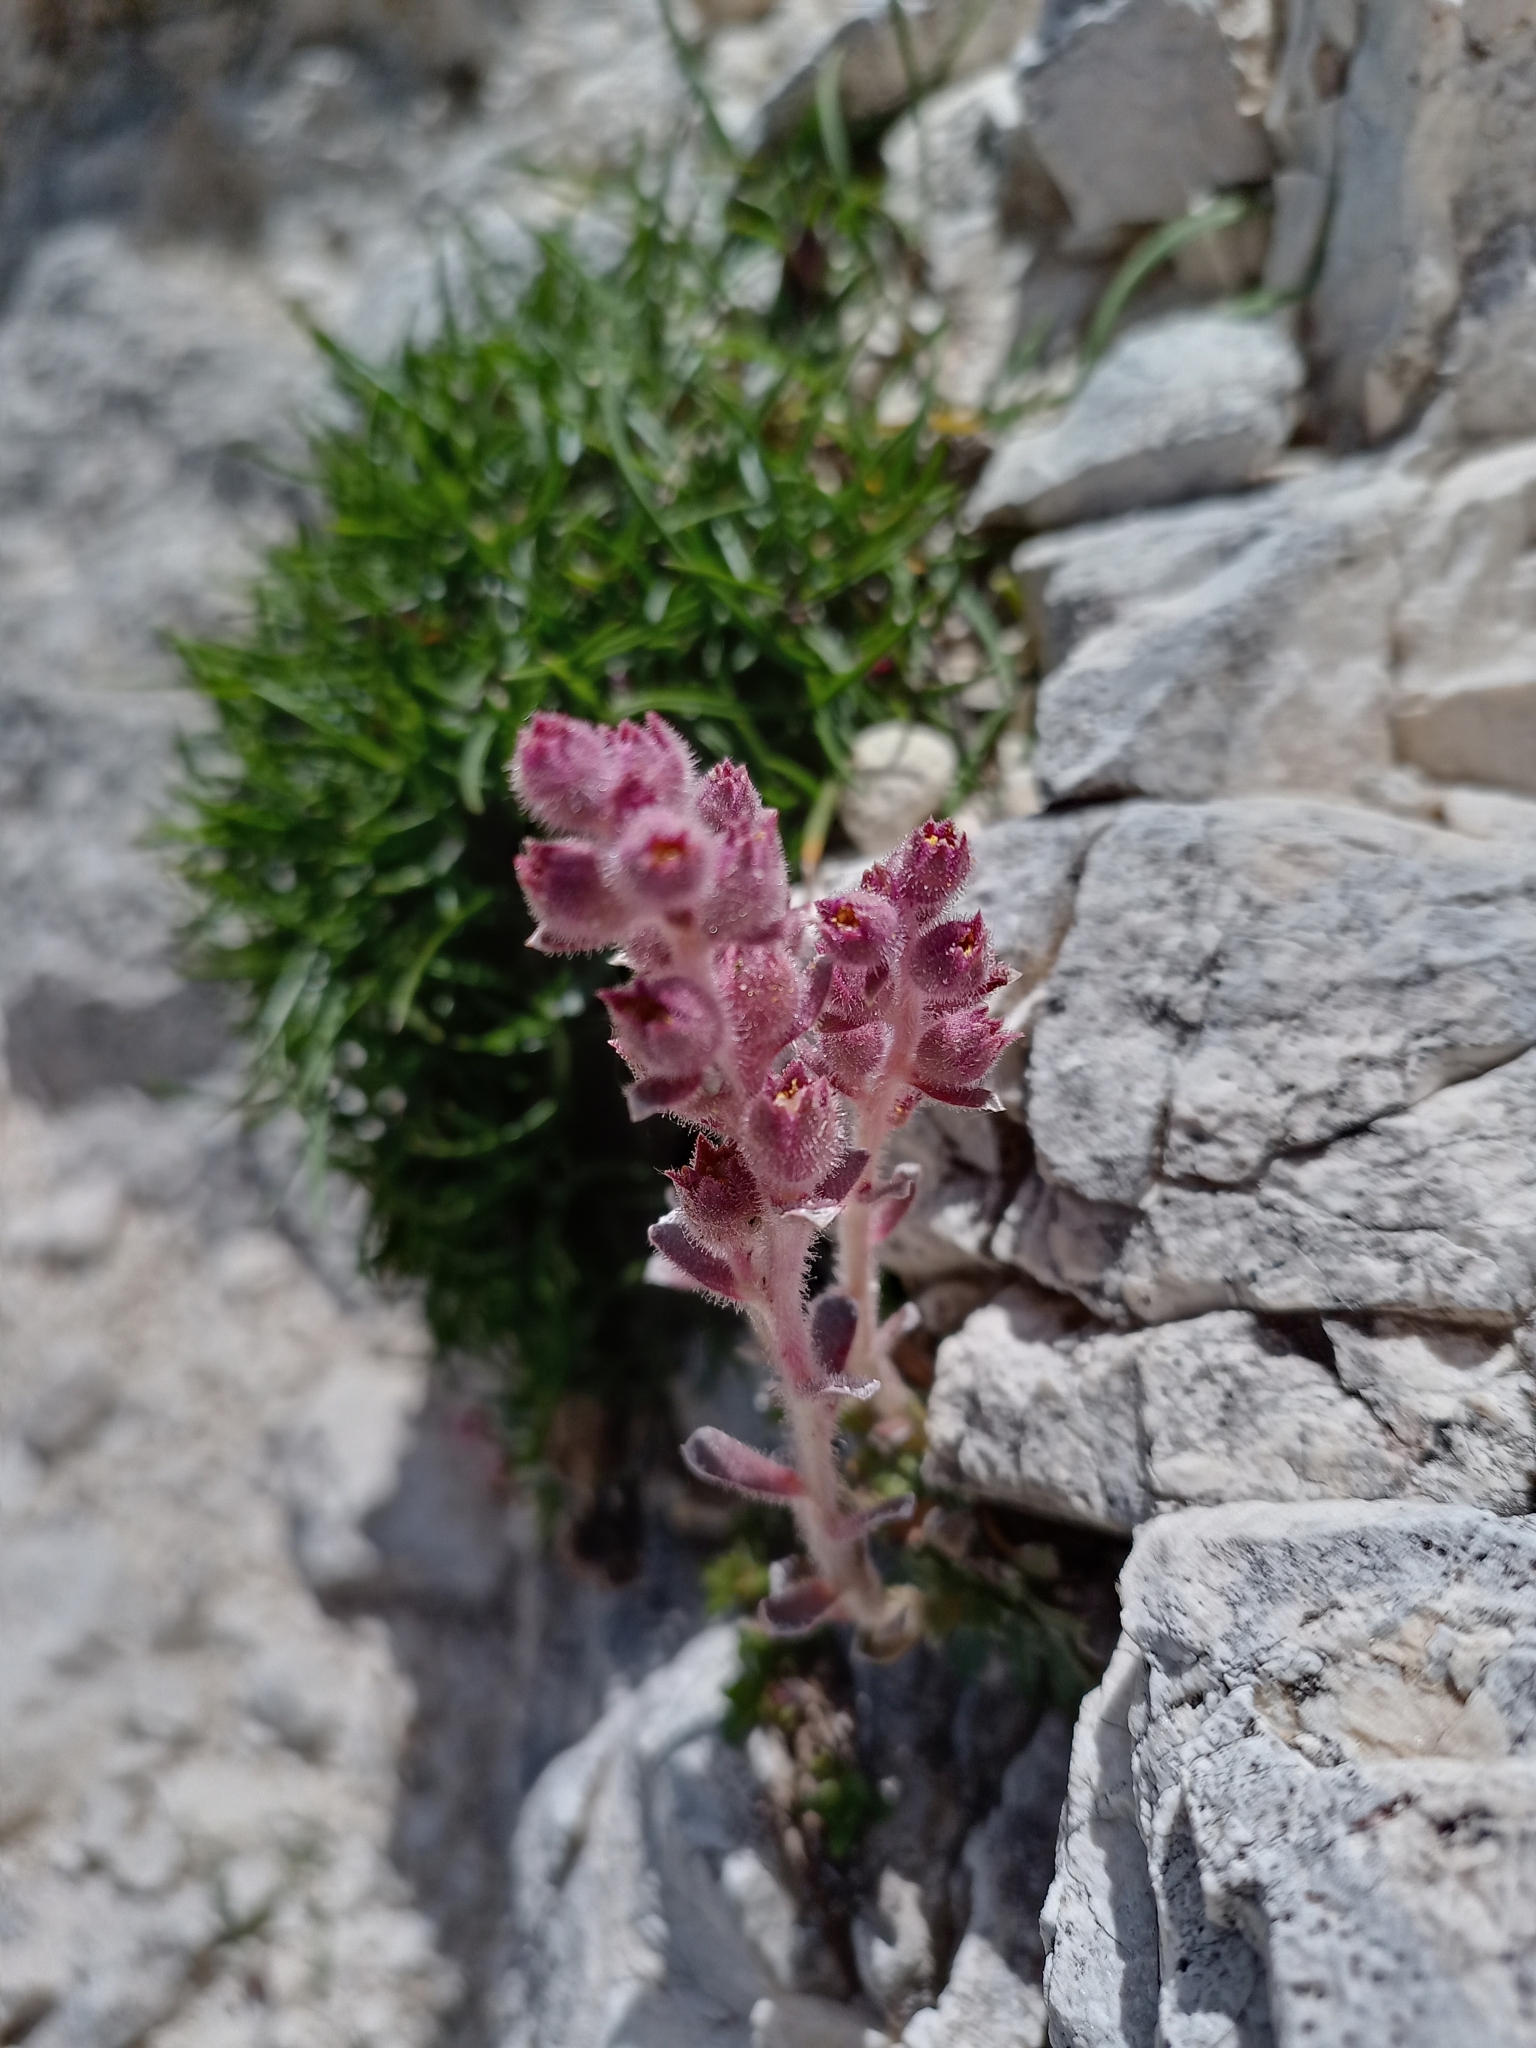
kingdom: Plantae
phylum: Tracheophyta
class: Magnoliopsida
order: Saxifragales
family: Saxifragaceae
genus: Saxifraga
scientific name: Saxifraga porophylla
